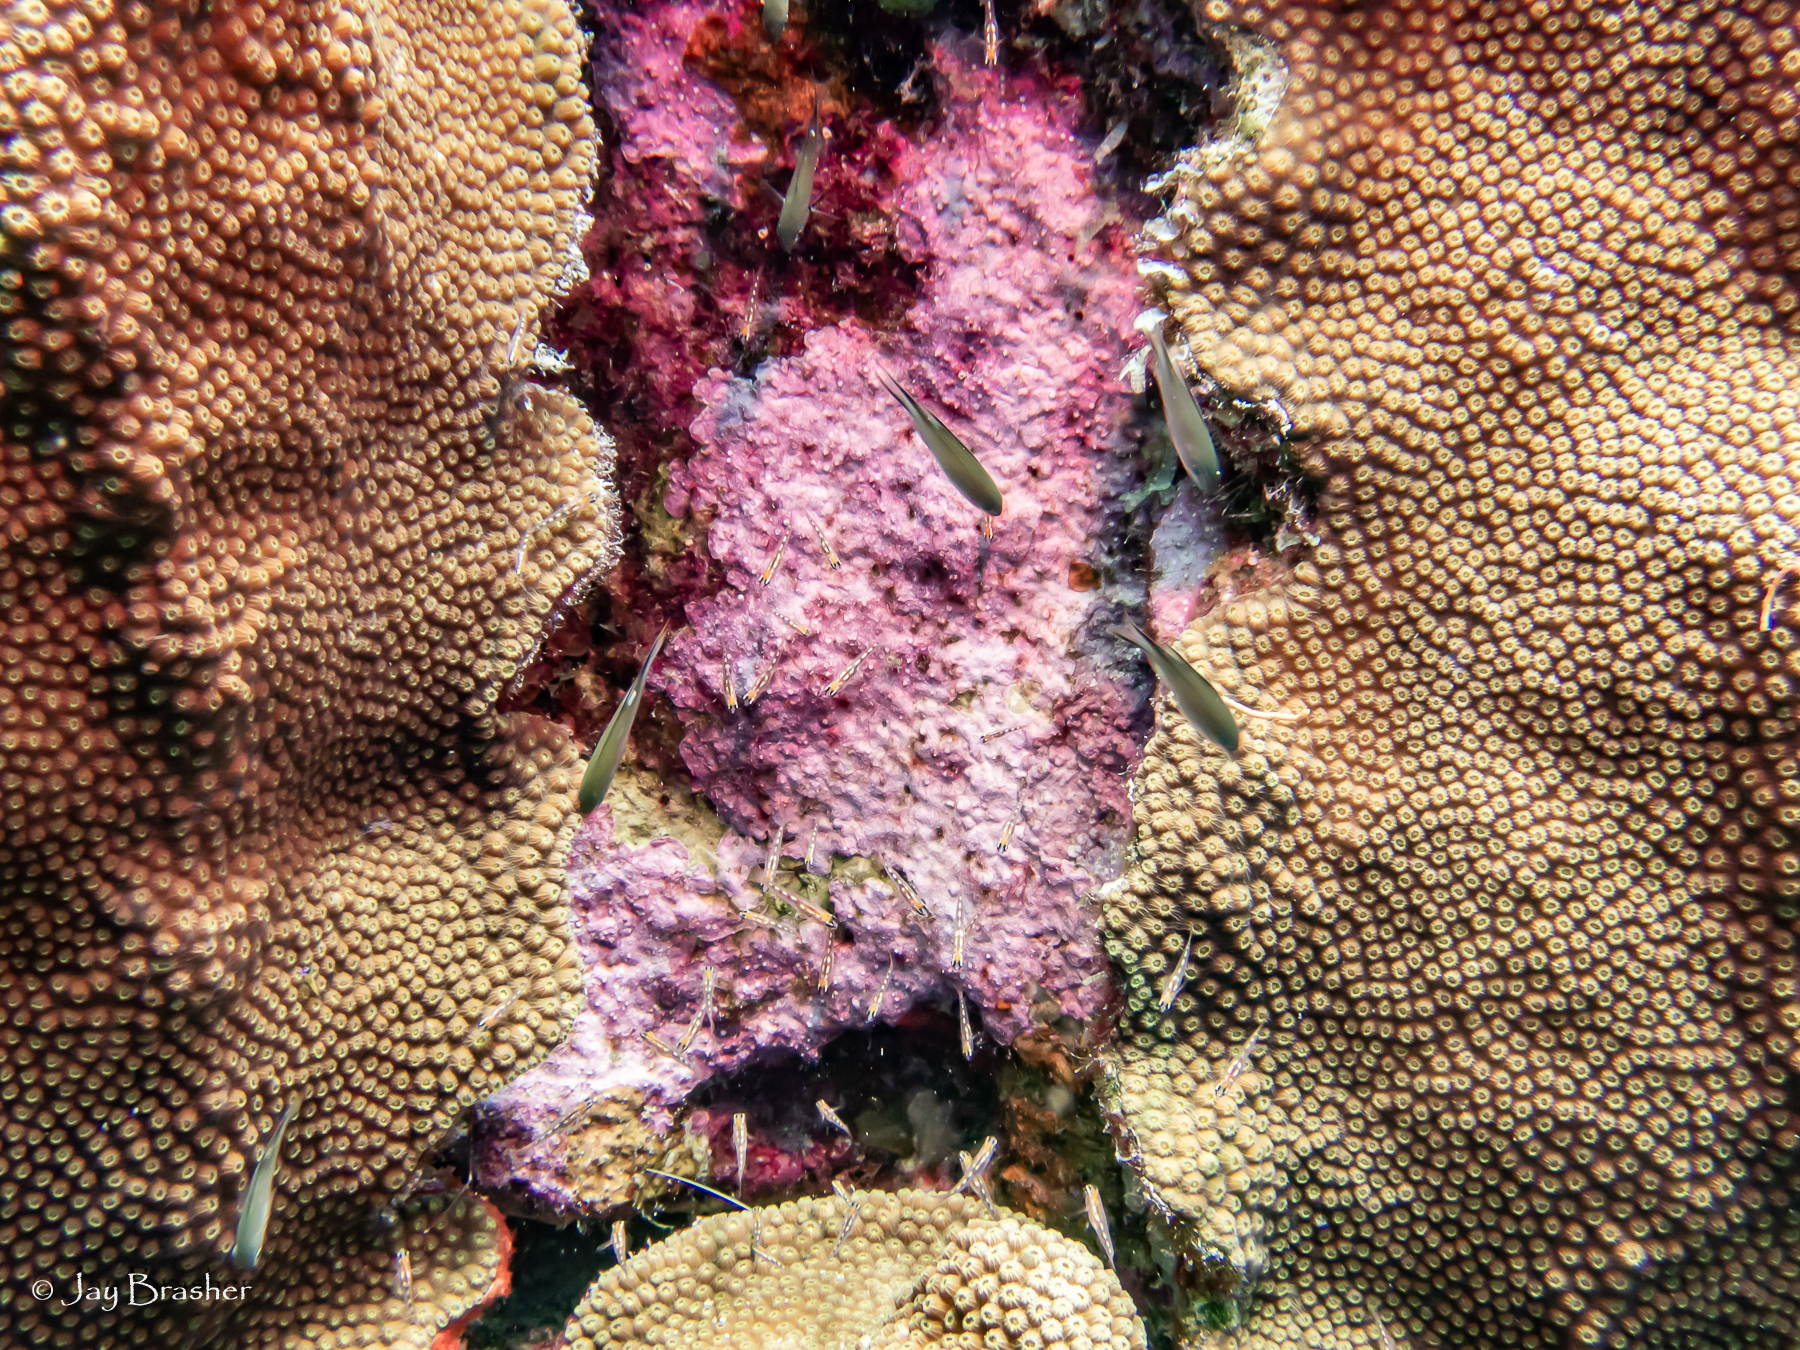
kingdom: Animalia
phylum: Cnidaria
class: Anthozoa
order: Scleractinia
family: Merulinidae
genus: Orbicella
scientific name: Orbicella faveolata
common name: Mountainous star coral
